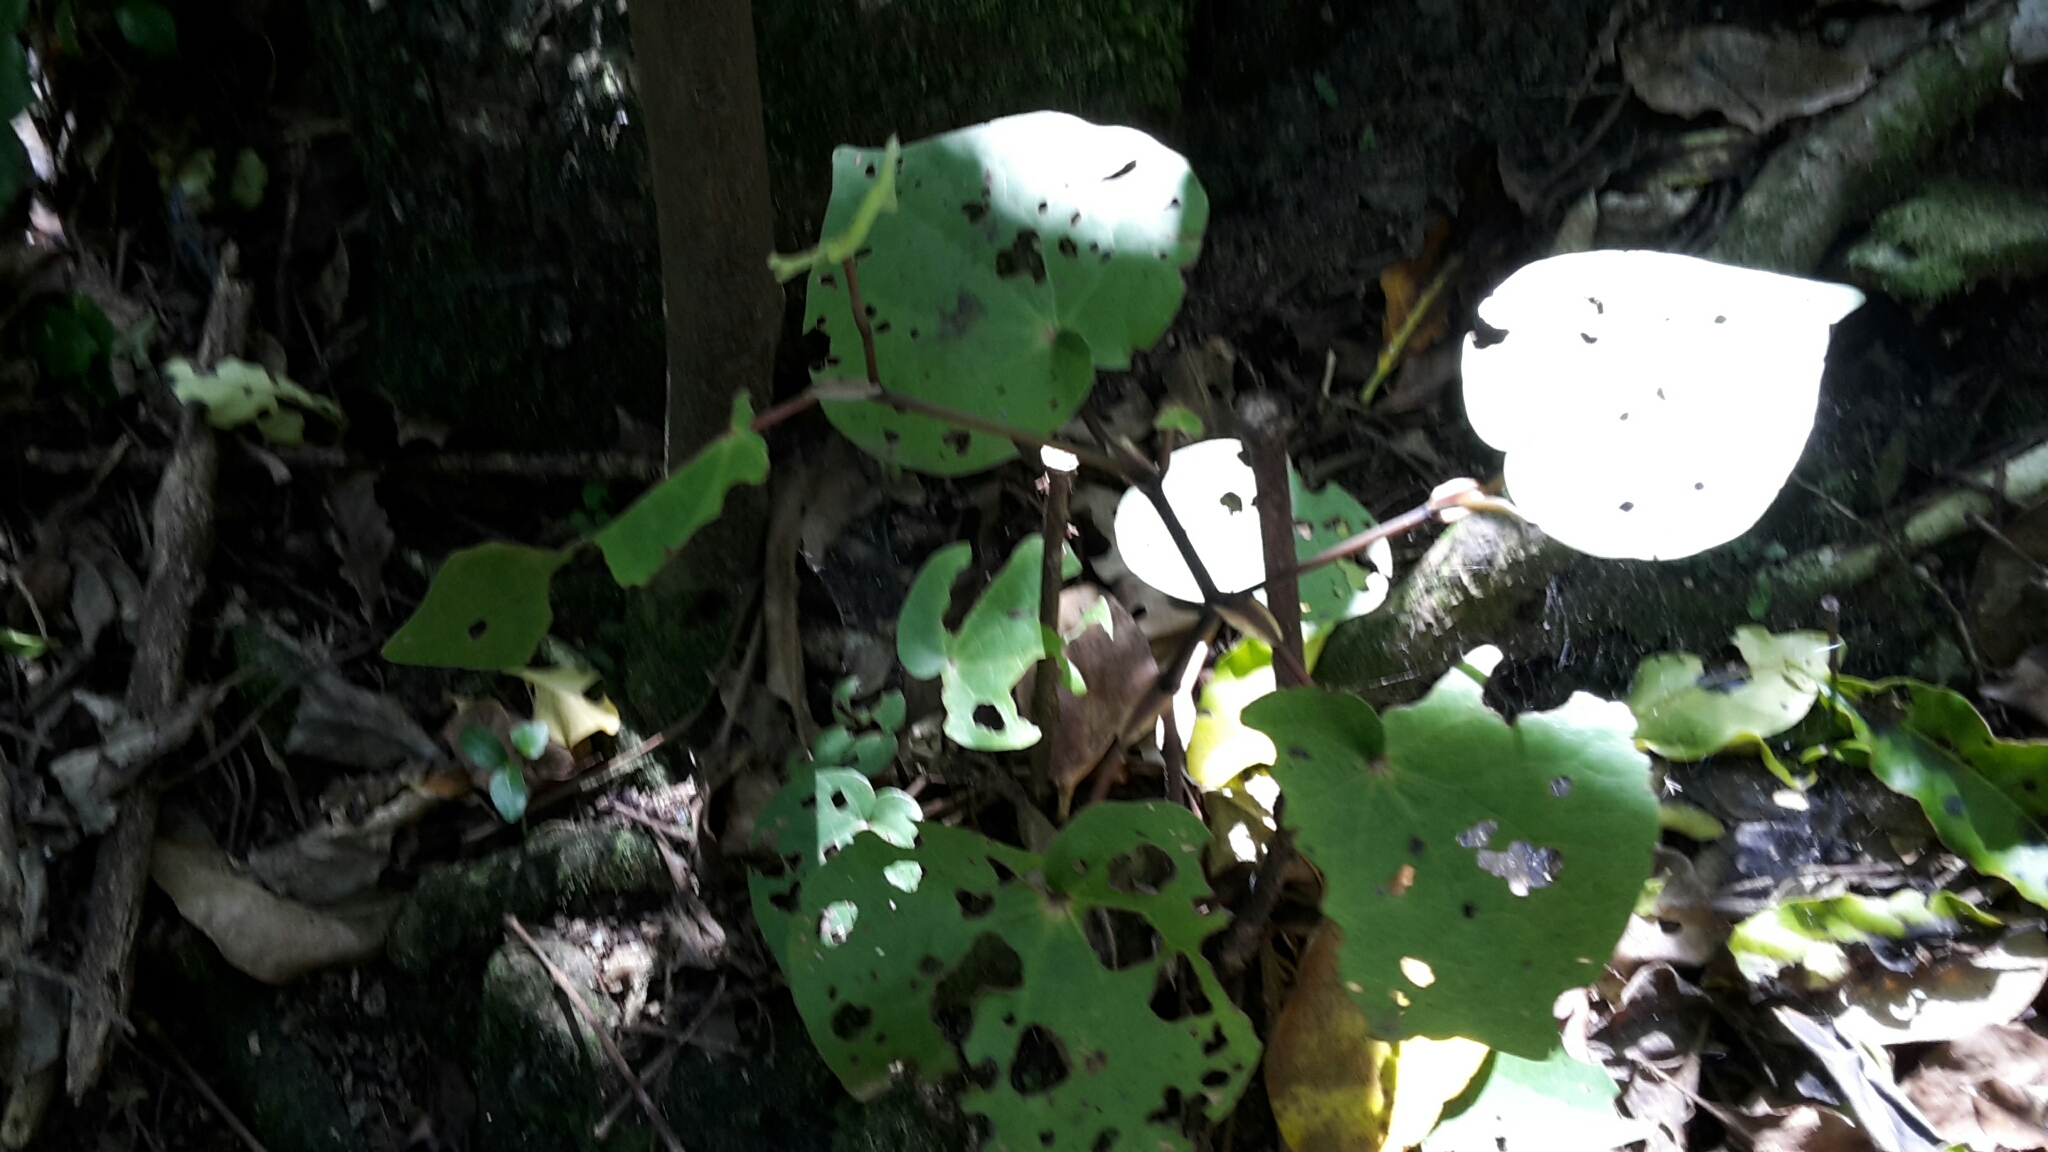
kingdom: Plantae
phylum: Tracheophyta
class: Magnoliopsida
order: Piperales
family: Piperaceae
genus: Macropiper
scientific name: Macropiper excelsum
